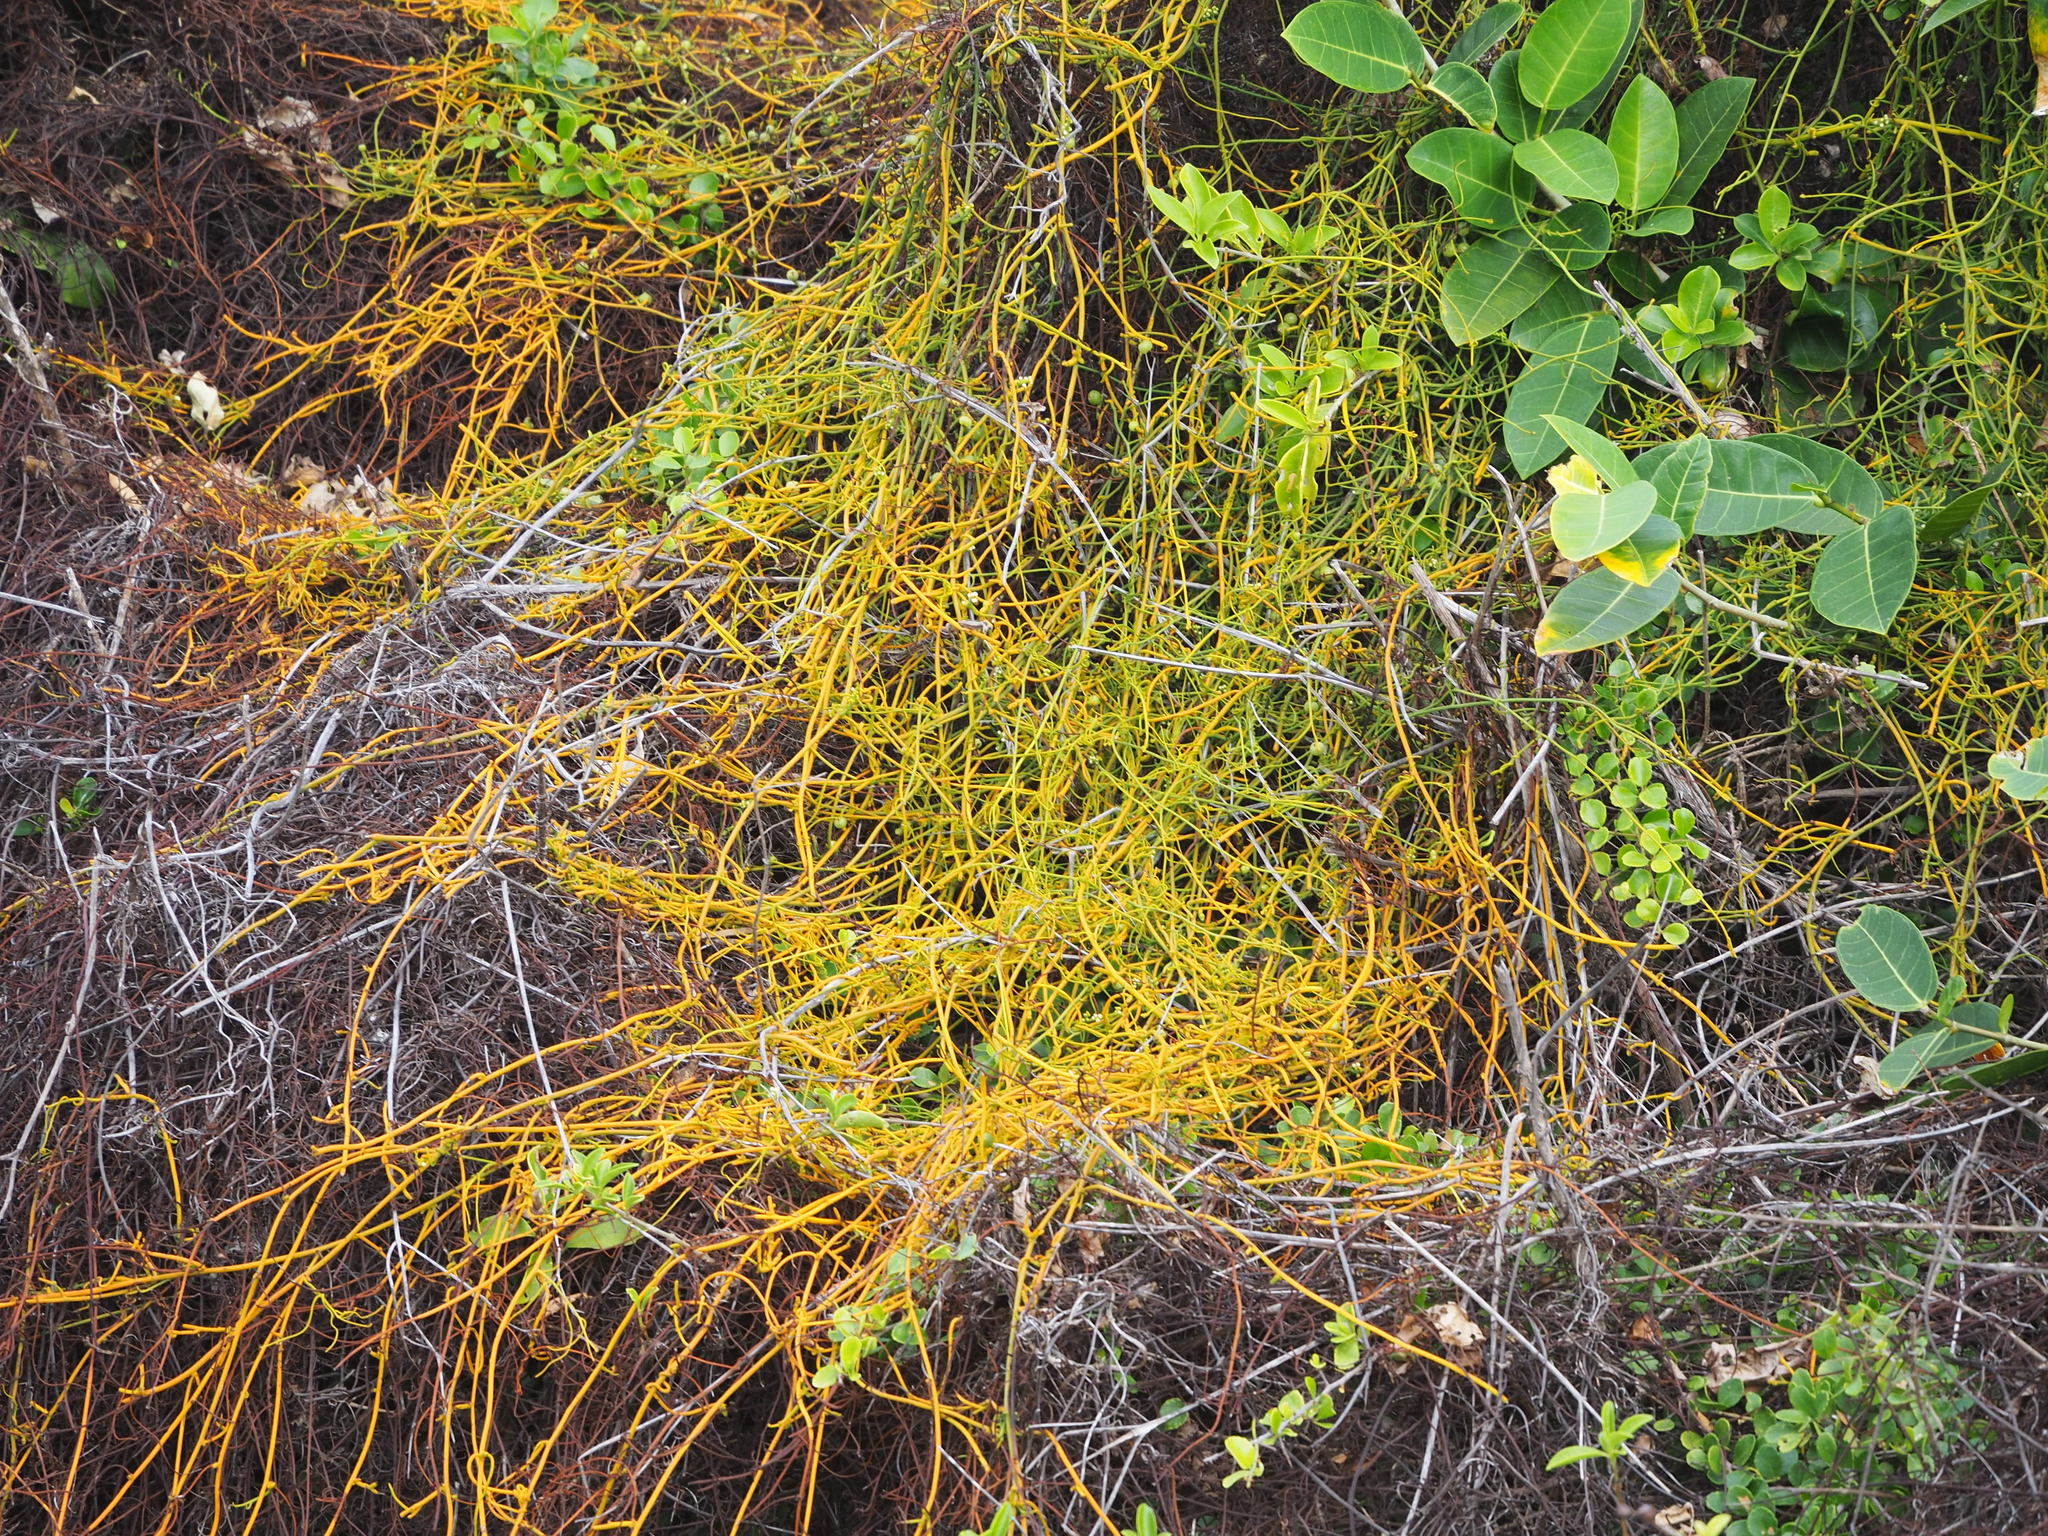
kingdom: Plantae
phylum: Tracheophyta
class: Magnoliopsida
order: Laurales
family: Lauraceae
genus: Cassytha
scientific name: Cassytha filiformis
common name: Dodder-laurel
